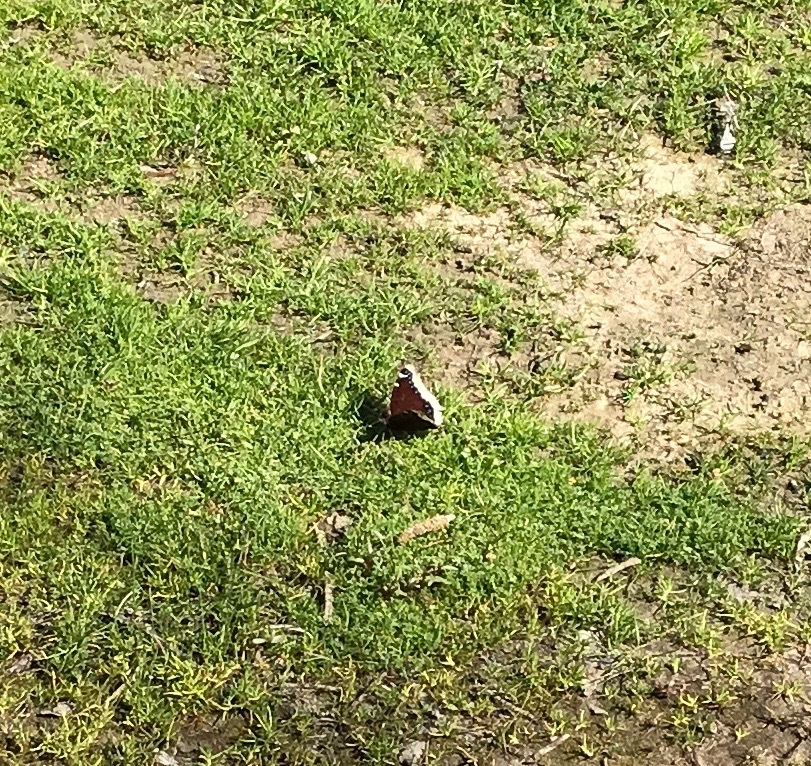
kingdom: Animalia
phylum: Arthropoda
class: Insecta
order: Lepidoptera
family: Nymphalidae
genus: Nymphalis
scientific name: Nymphalis antiopa
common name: Camberwell beauty
